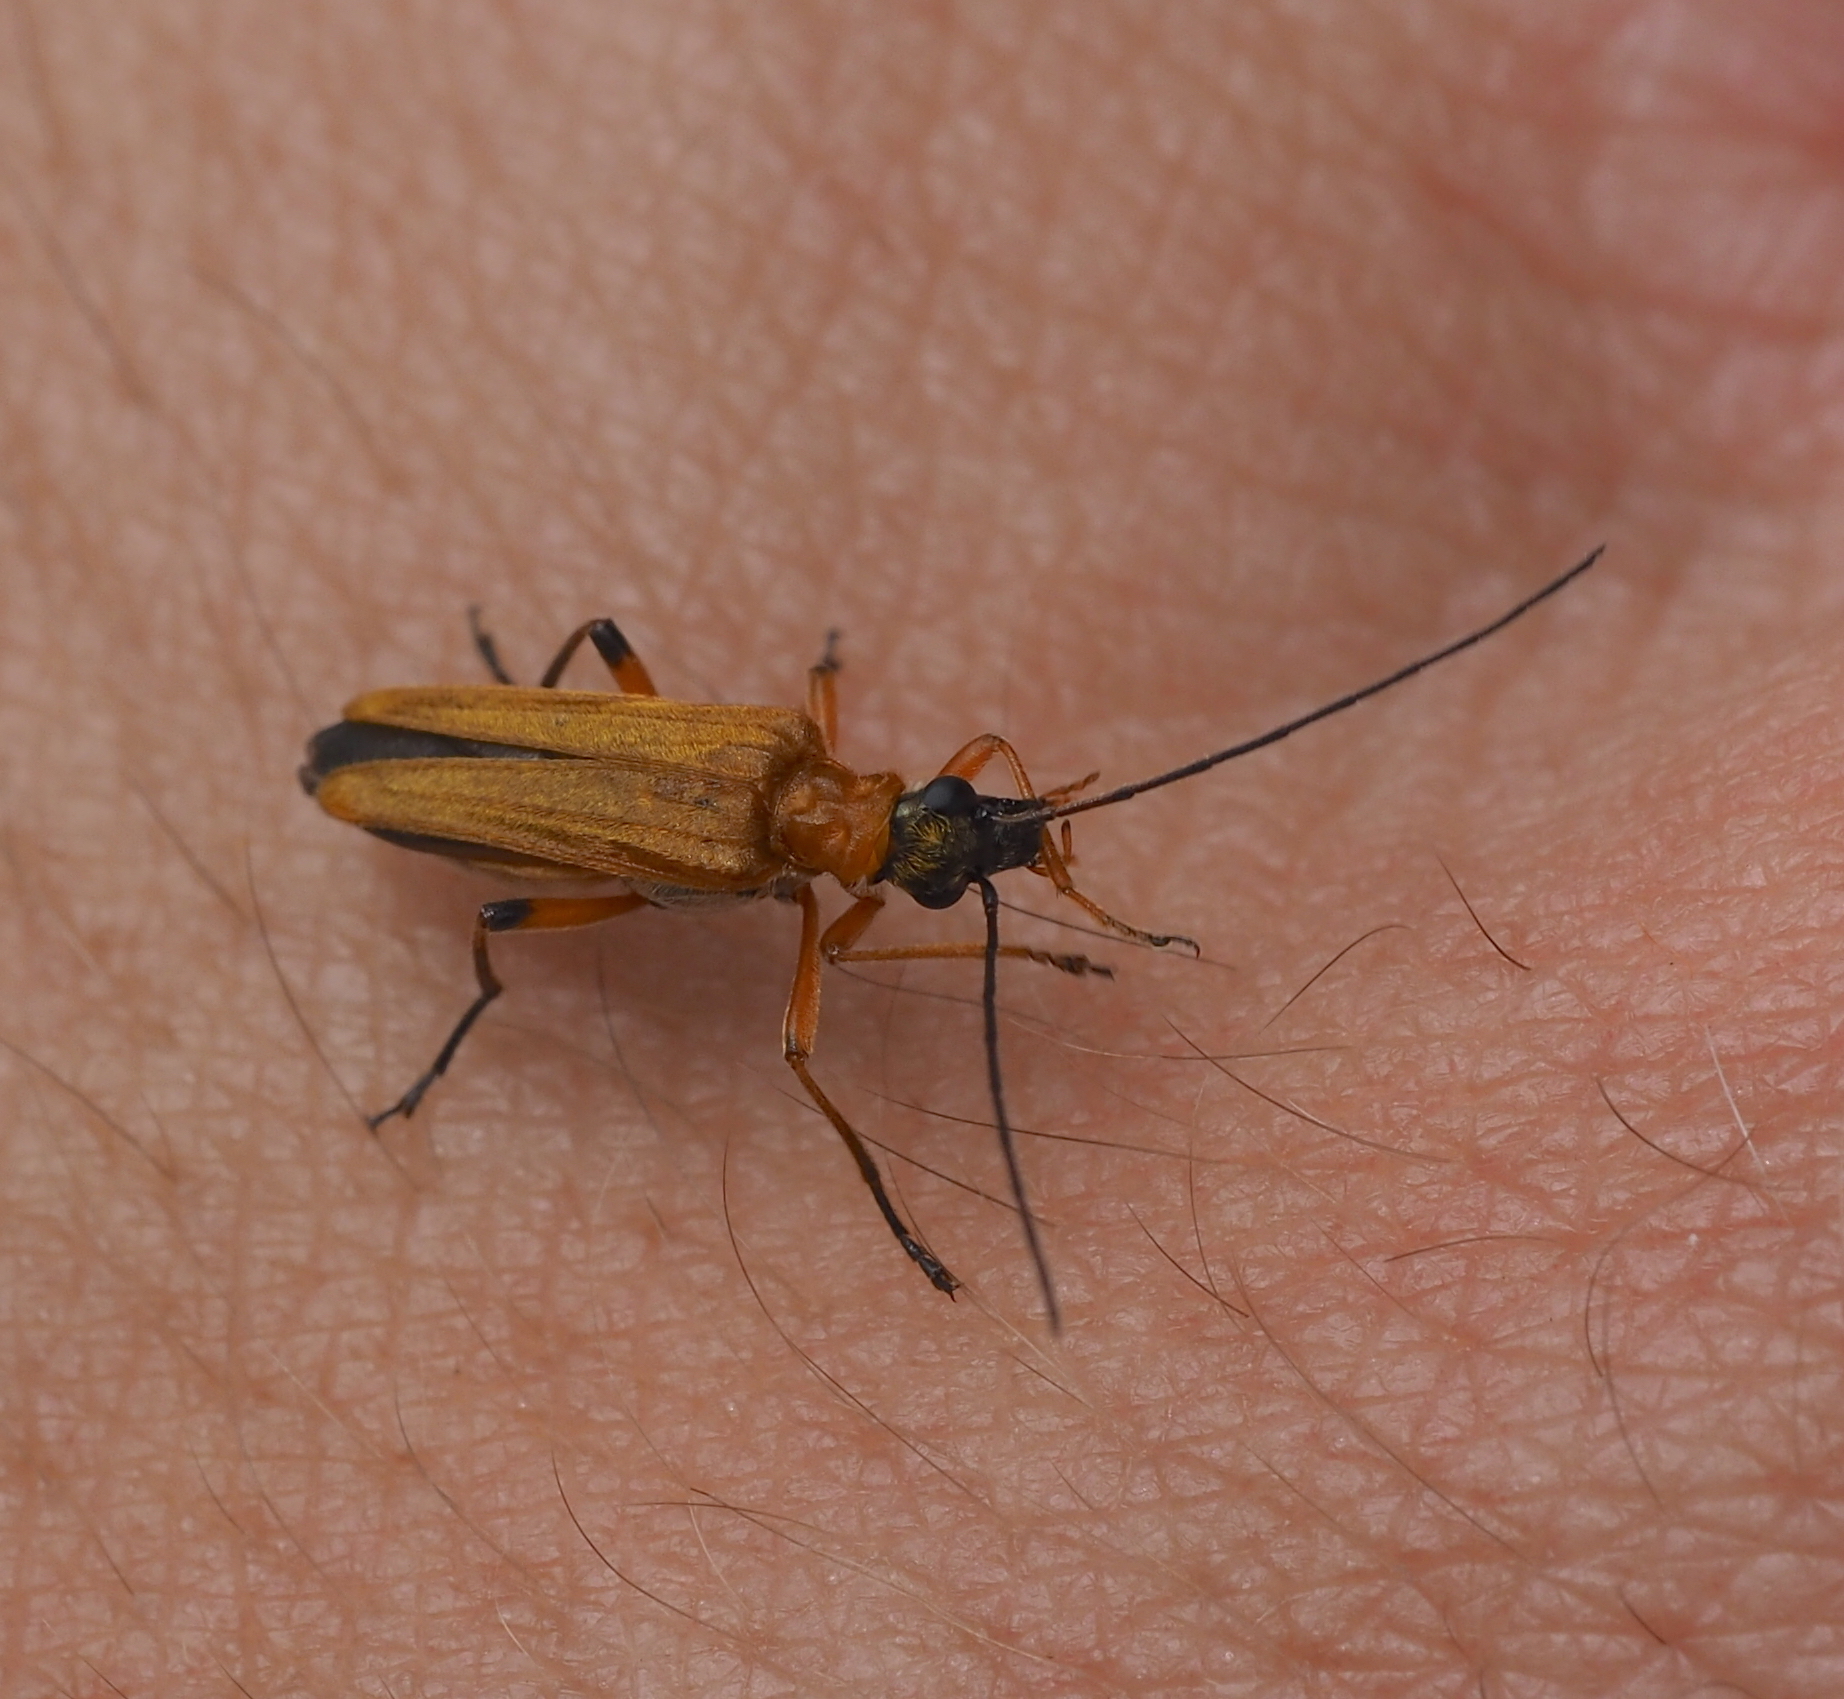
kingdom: Animalia
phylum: Arthropoda
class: Insecta
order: Coleoptera
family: Oedemeridae
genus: Oedemera
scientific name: Oedemera podagrariae
